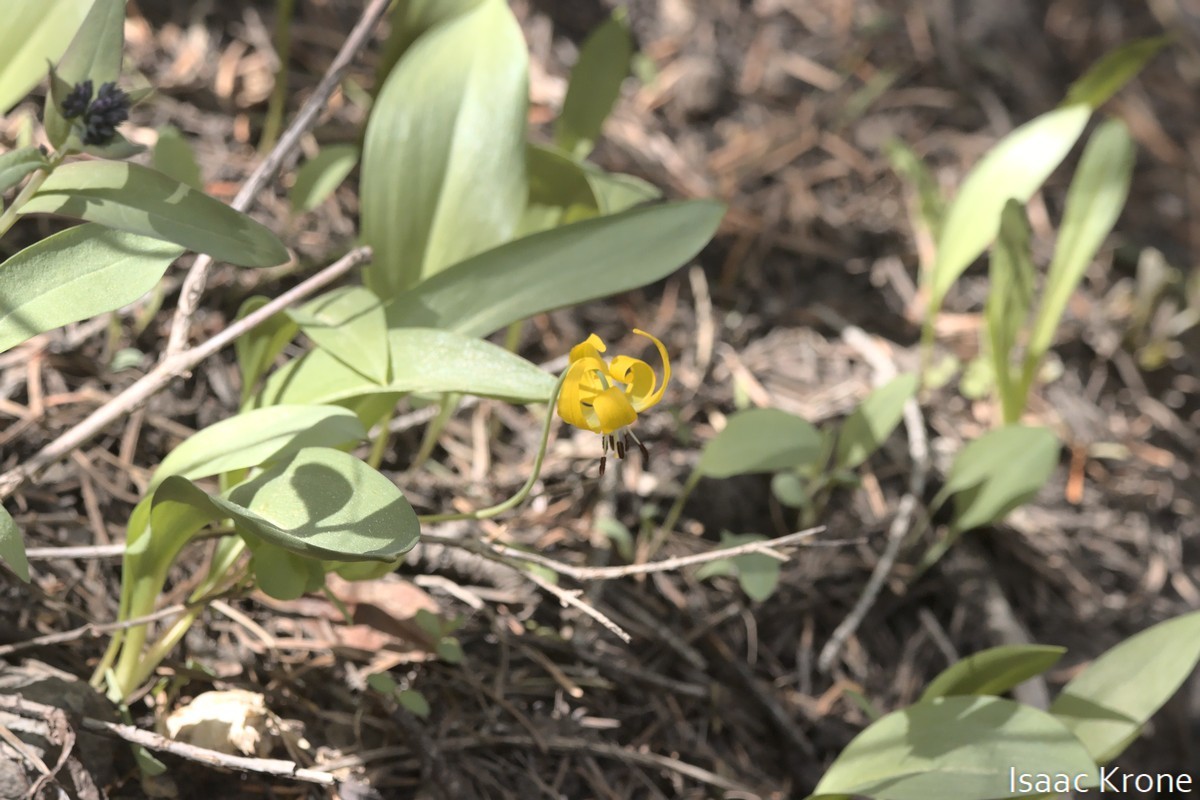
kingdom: Plantae
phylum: Tracheophyta
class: Liliopsida
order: Liliales
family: Liliaceae
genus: Erythronium
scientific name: Erythronium grandiflorum
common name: Avalanche-lily
